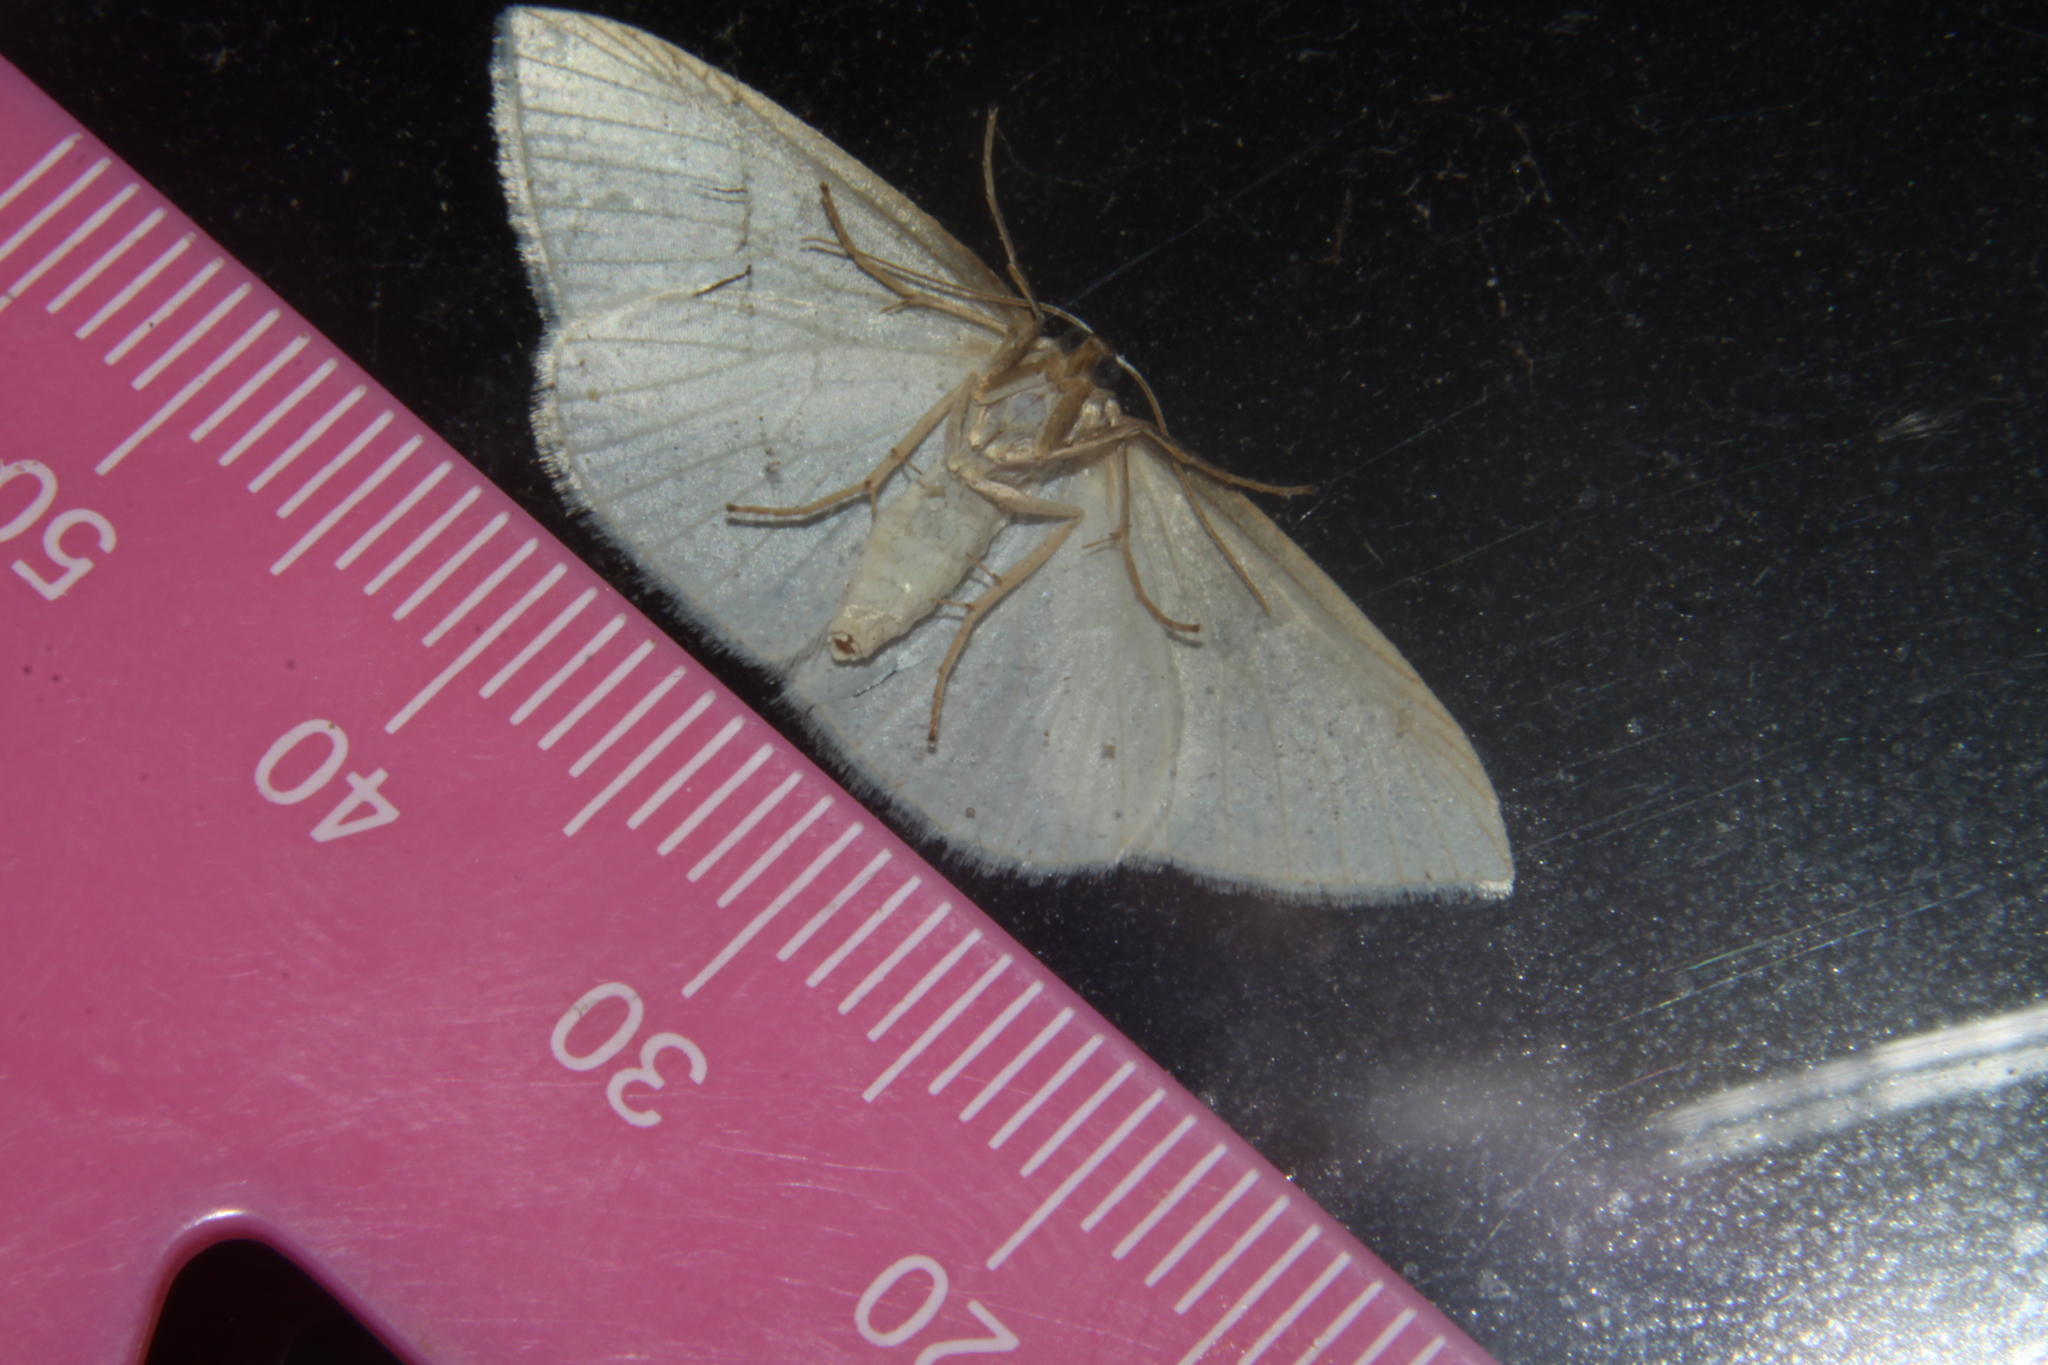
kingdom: Animalia
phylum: Arthropoda
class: Insecta
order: Lepidoptera
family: Geometridae
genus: Orthoclydon
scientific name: Orthoclydon praefectata
